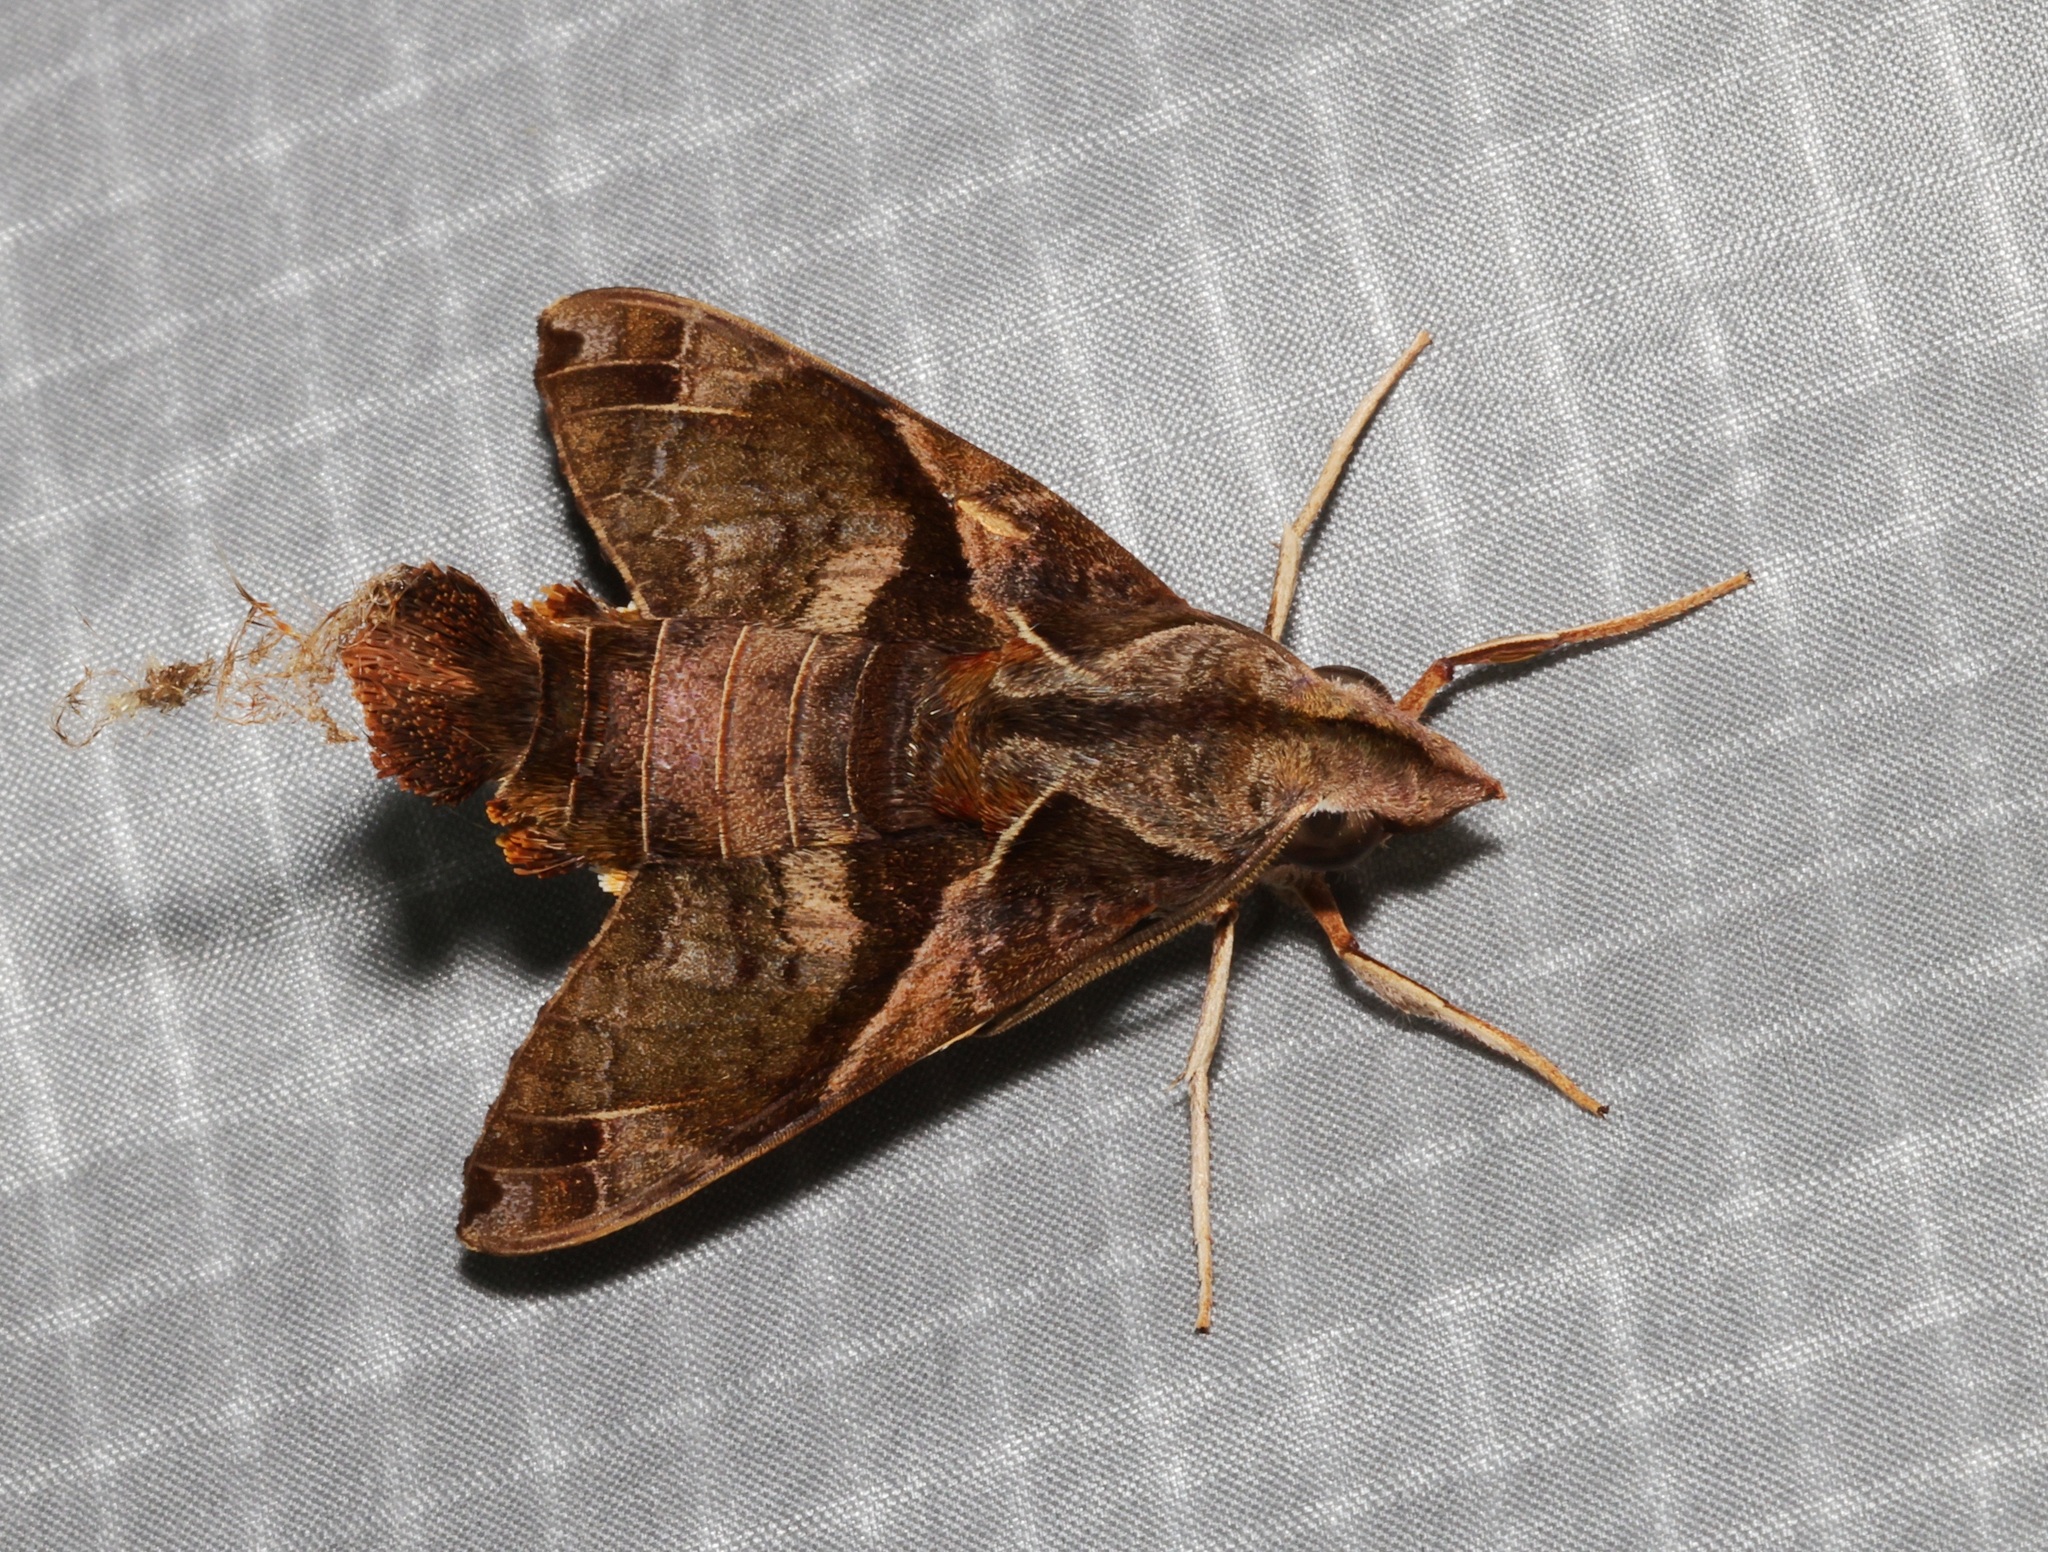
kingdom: Animalia
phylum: Arthropoda
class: Insecta
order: Lepidoptera
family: Sphingidae
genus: Macroglossum
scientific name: Macroglossum fritzei
